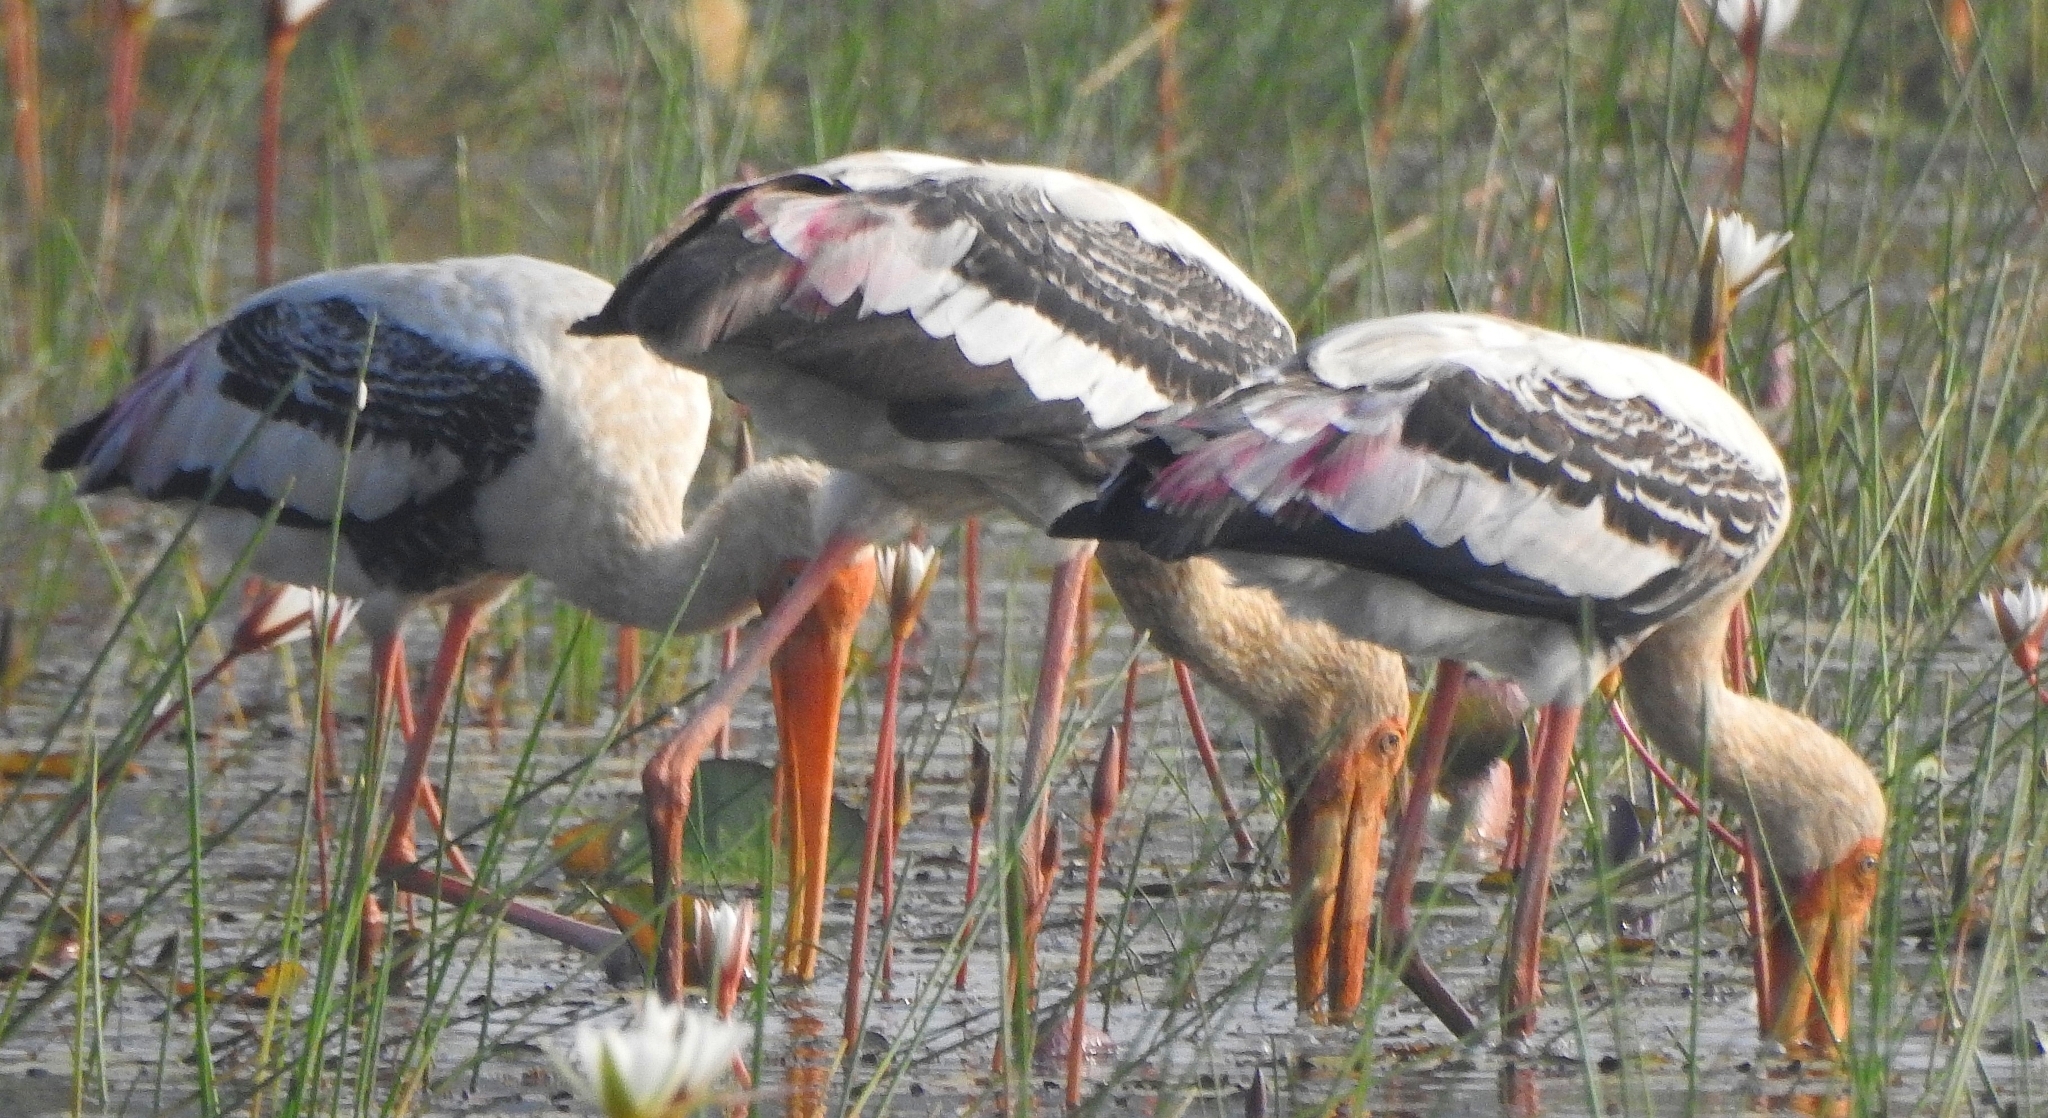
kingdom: Animalia
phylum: Chordata
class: Aves
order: Ciconiiformes
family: Ciconiidae
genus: Mycteria
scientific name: Mycteria leucocephala
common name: Painted stork
